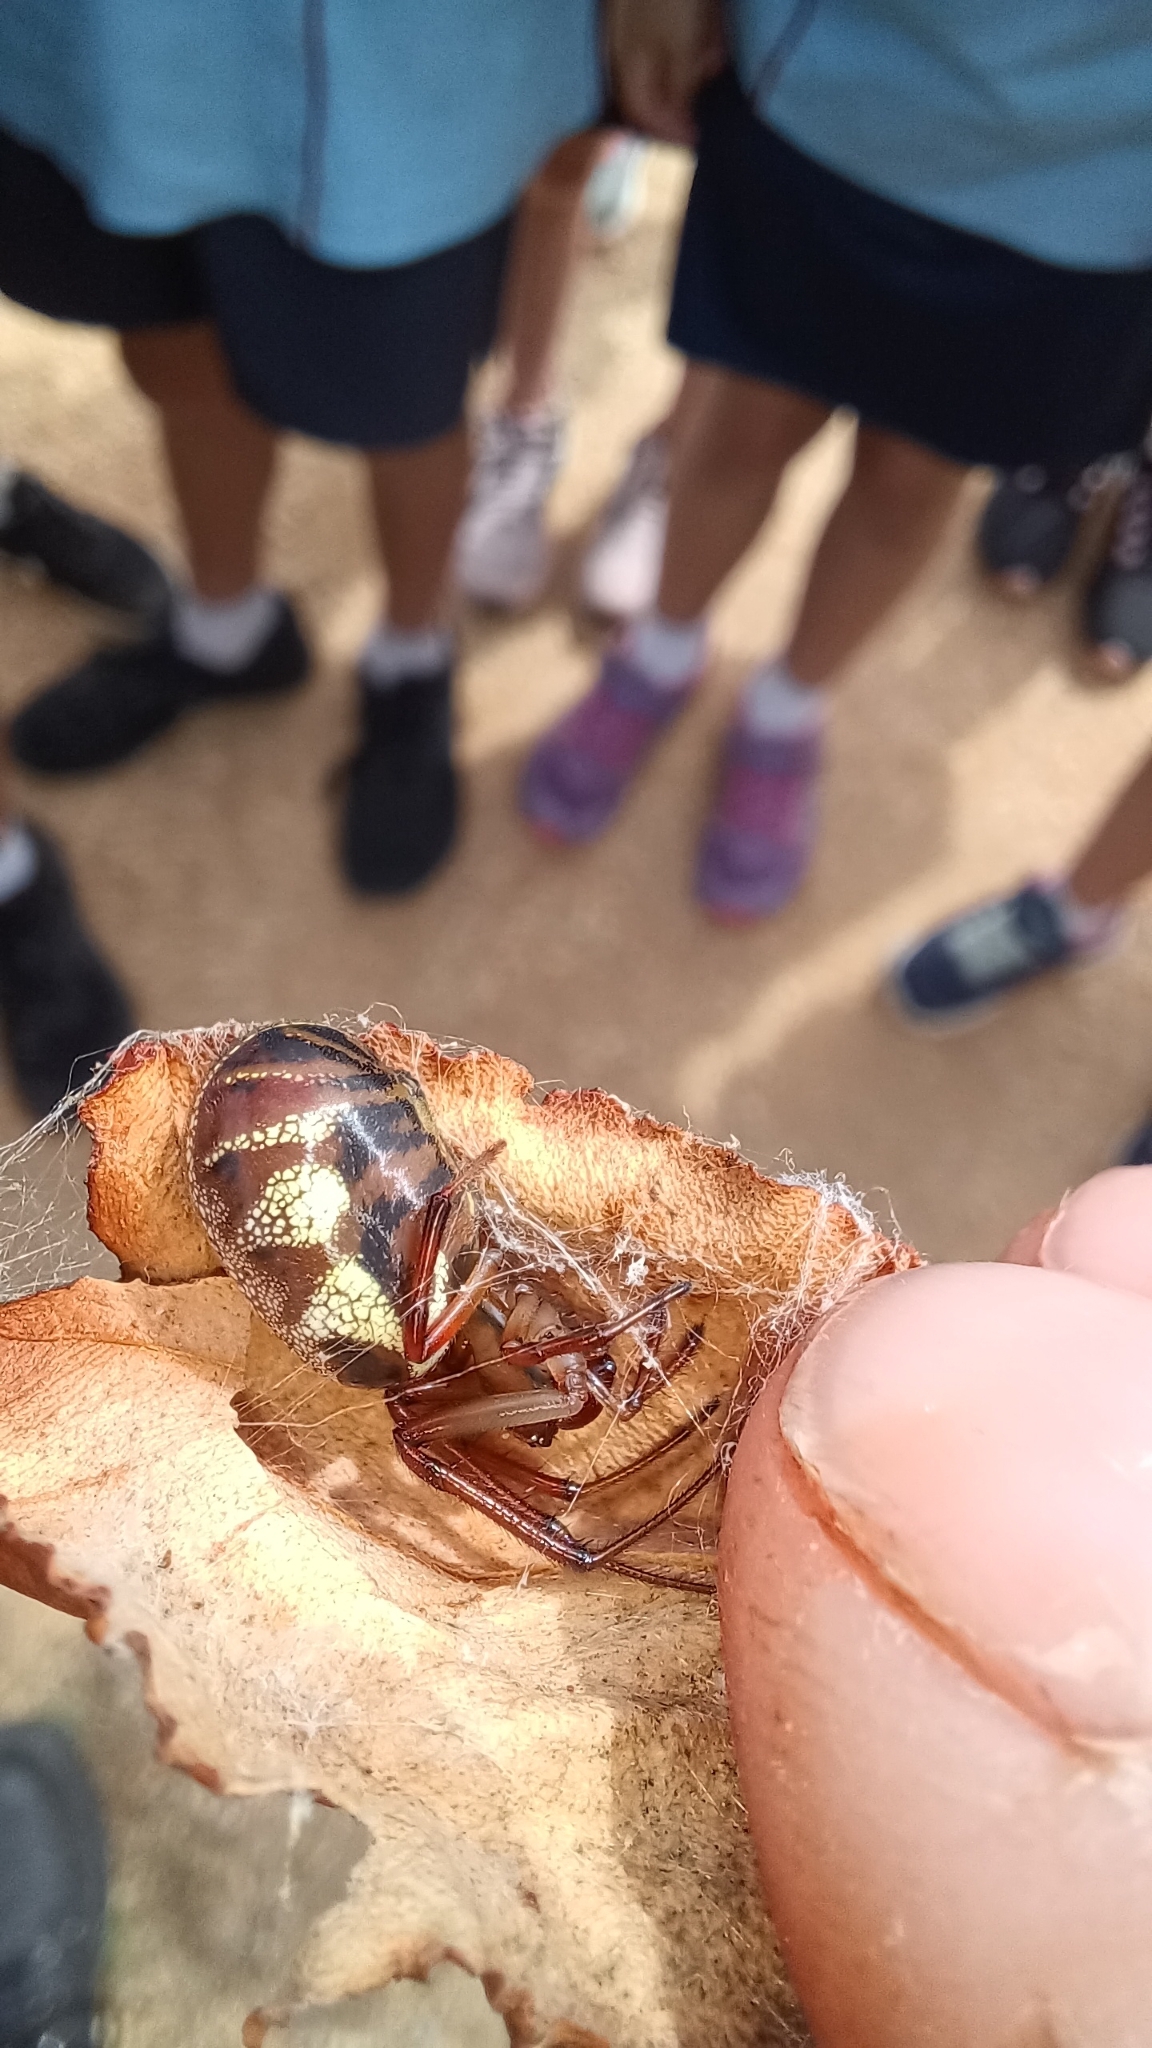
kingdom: Animalia
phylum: Arthropoda
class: Arachnida
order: Araneae
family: Araneidae
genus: Phonognatha
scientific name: Phonognatha graeffei
